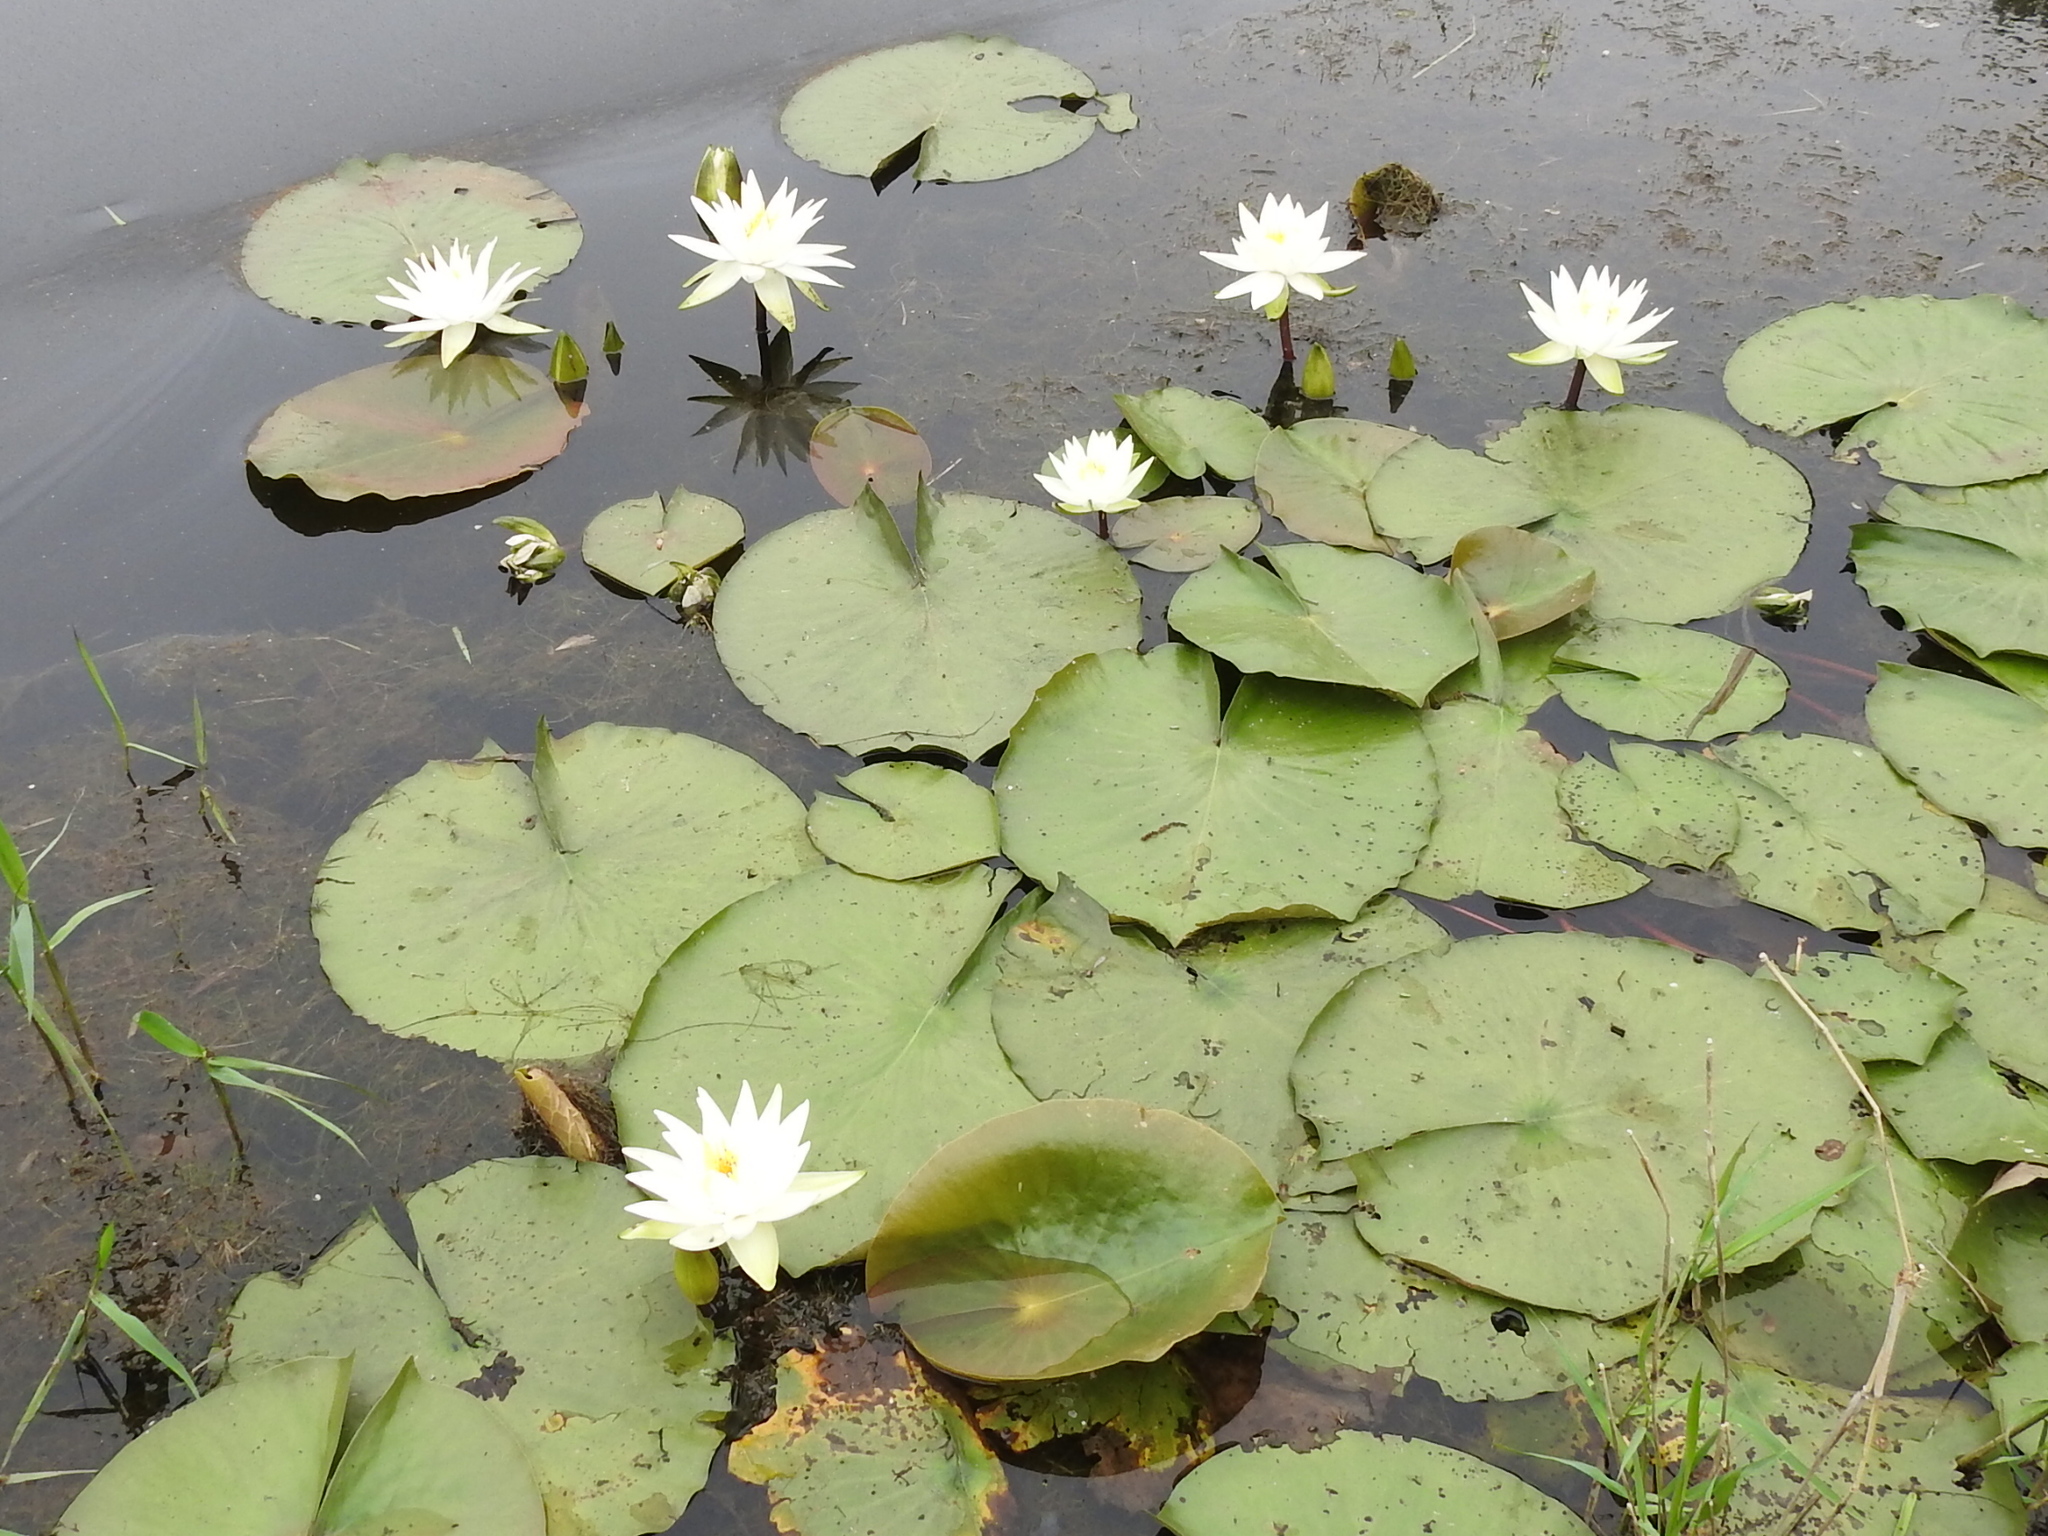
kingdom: Plantae
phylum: Tracheophyta
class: Magnoliopsida
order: Nymphaeales
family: Nymphaeaceae
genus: Nymphaea
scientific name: Nymphaea odorata
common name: Fragrant water-lily
